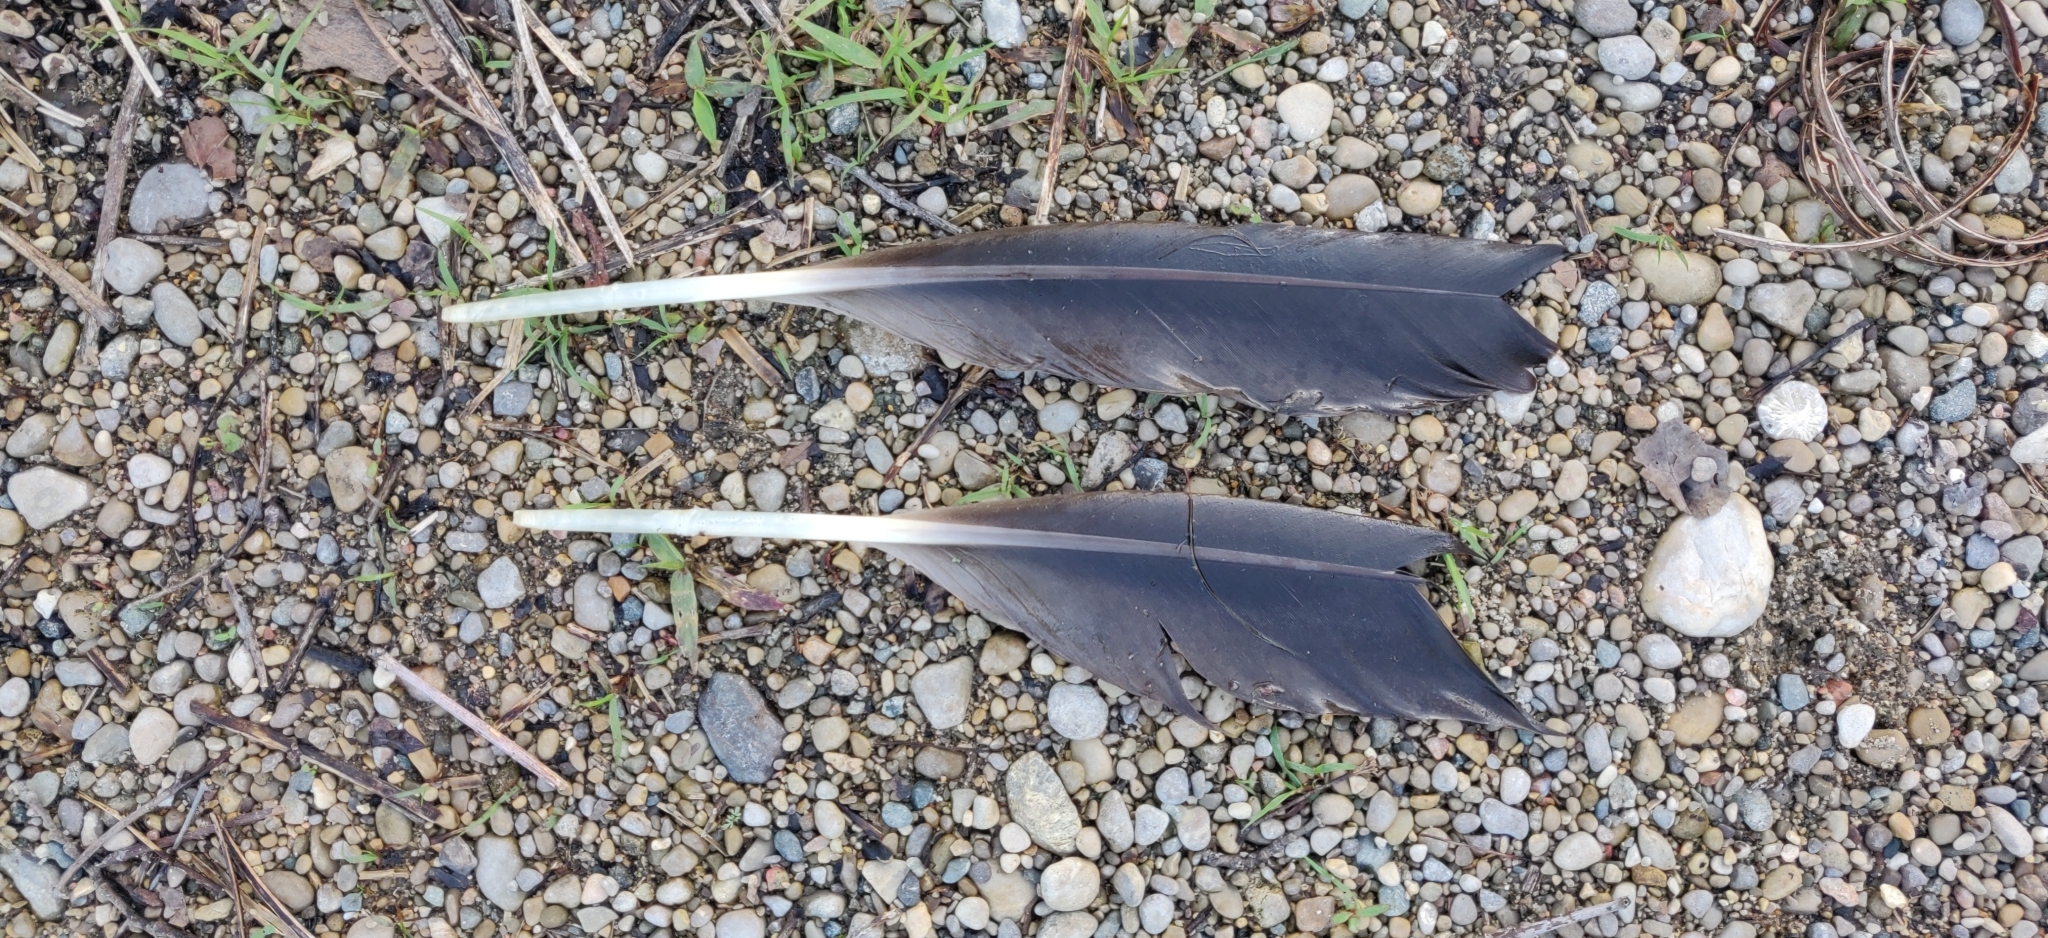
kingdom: Animalia
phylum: Chordata
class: Aves
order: Anseriformes
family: Anatidae
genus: Branta
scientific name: Branta canadensis
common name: Canada goose
